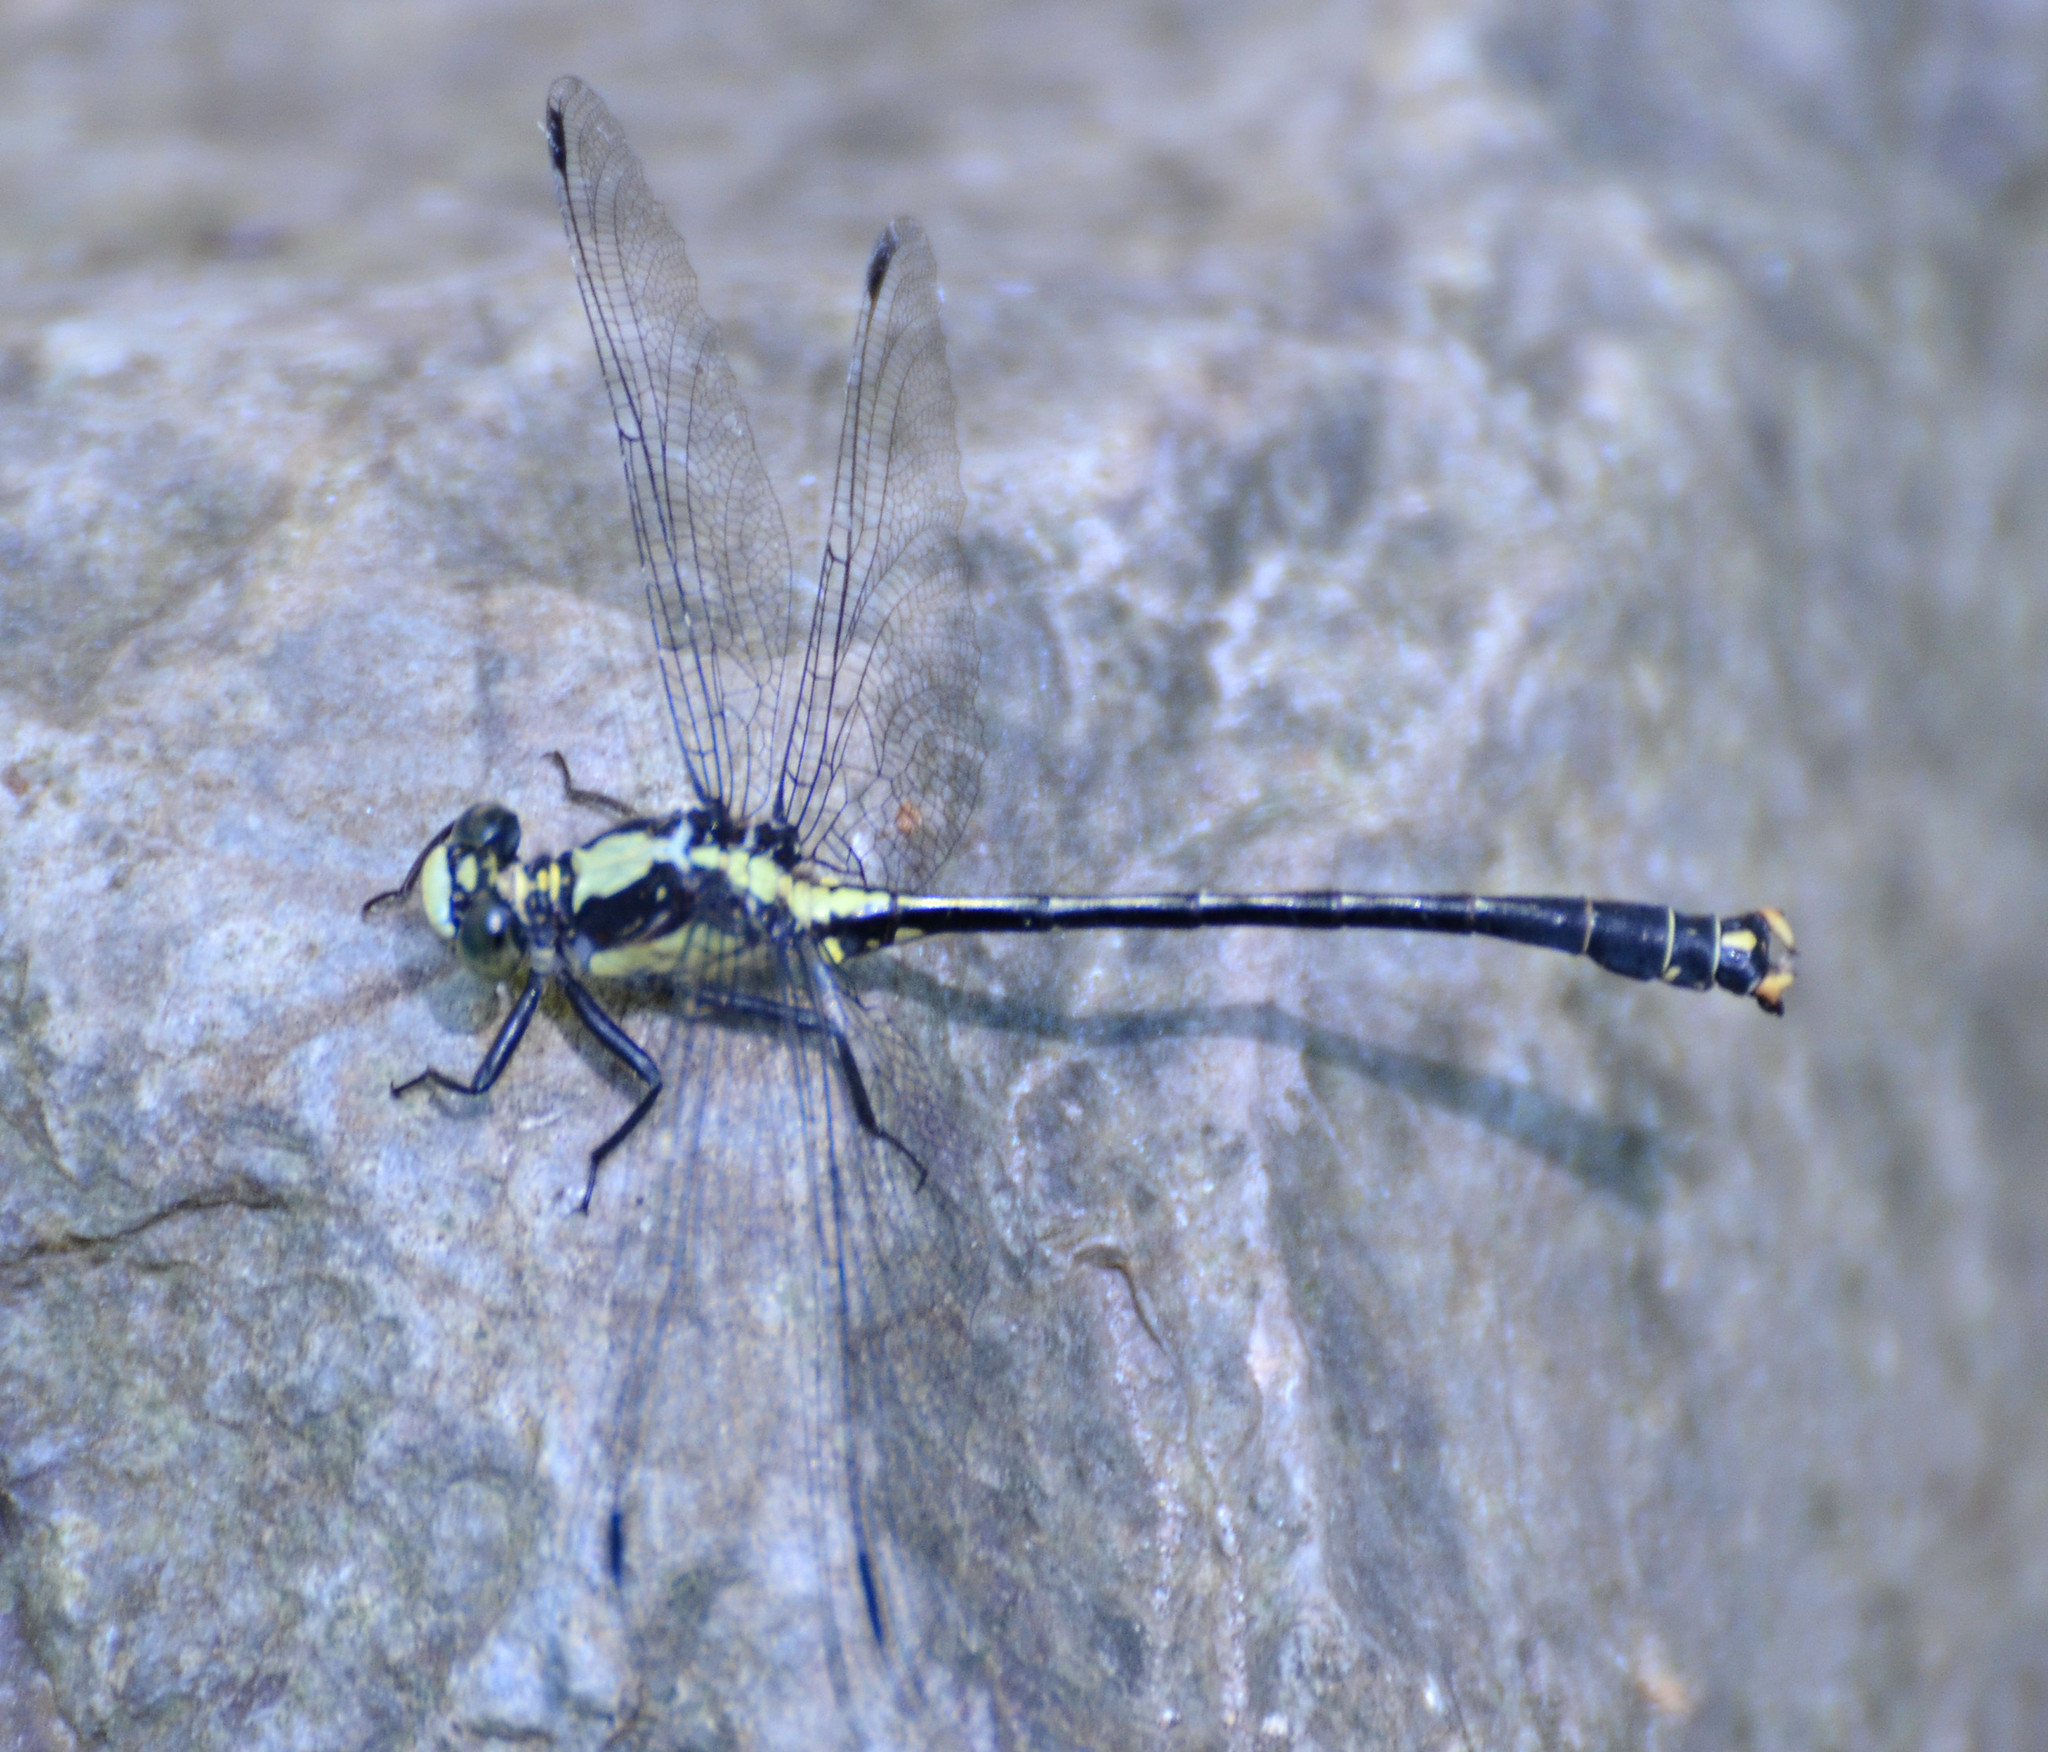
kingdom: Animalia
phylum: Arthropoda
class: Insecta
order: Odonata
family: Gomphidae
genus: Octogomphus
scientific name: Octogomphus specularis
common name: Grappletail
